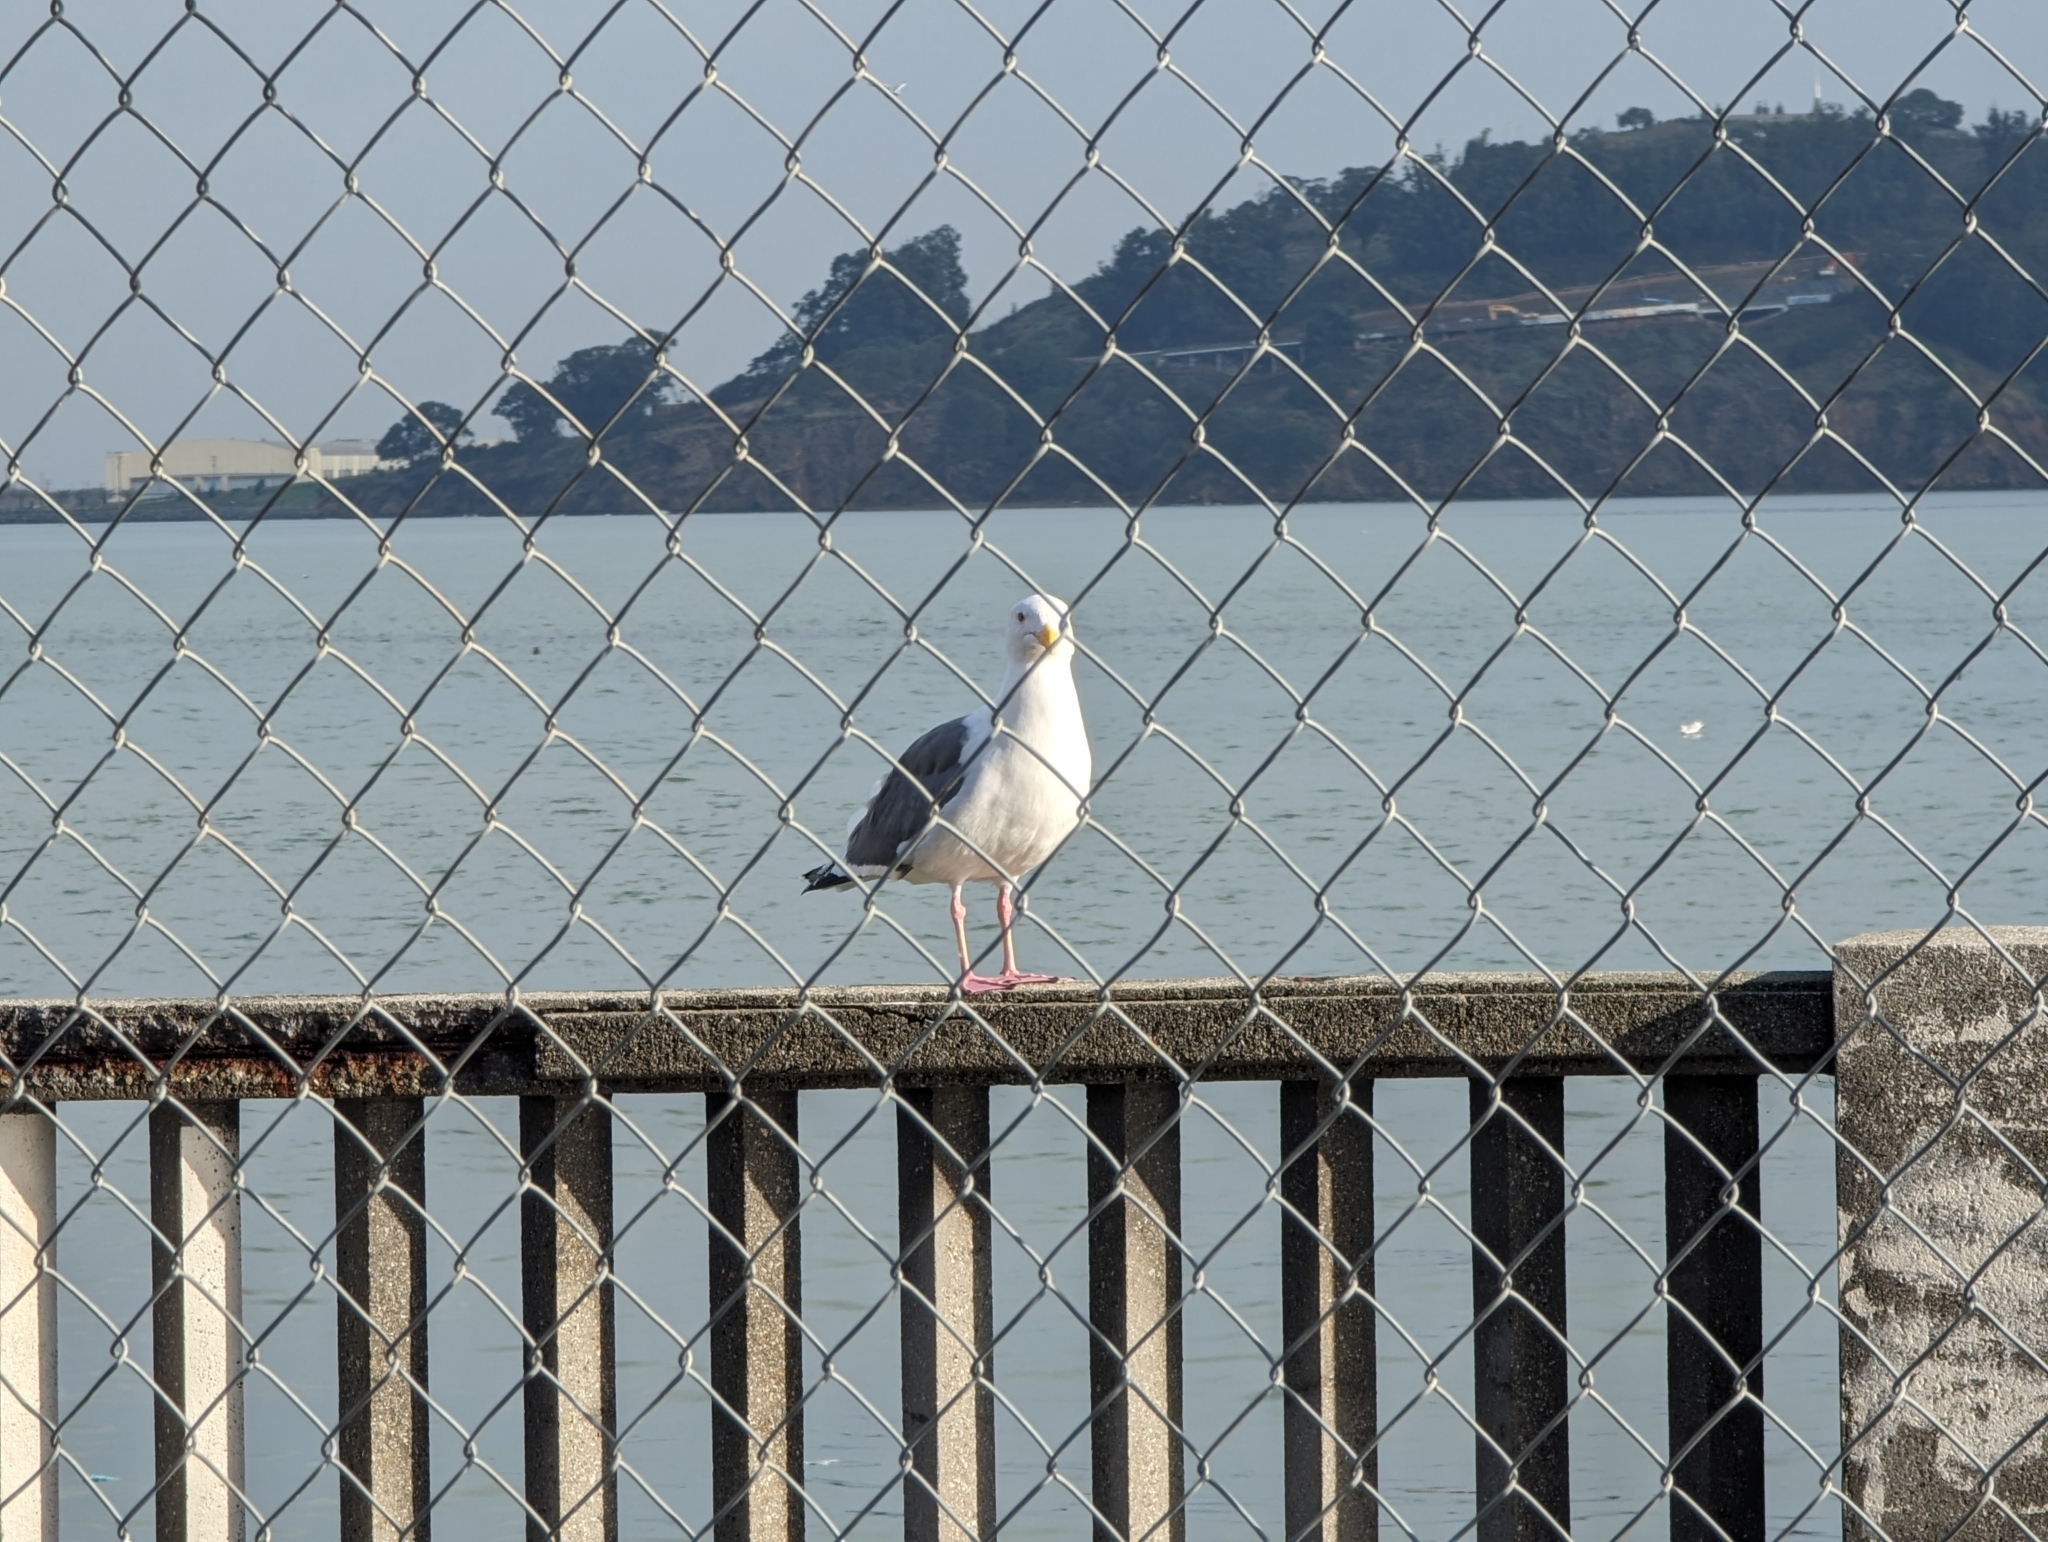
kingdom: Animalia
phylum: Chordata
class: Aves
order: Charadriiformes
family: Laridae
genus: Larus
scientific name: Larus occidentalis
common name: Western gull
